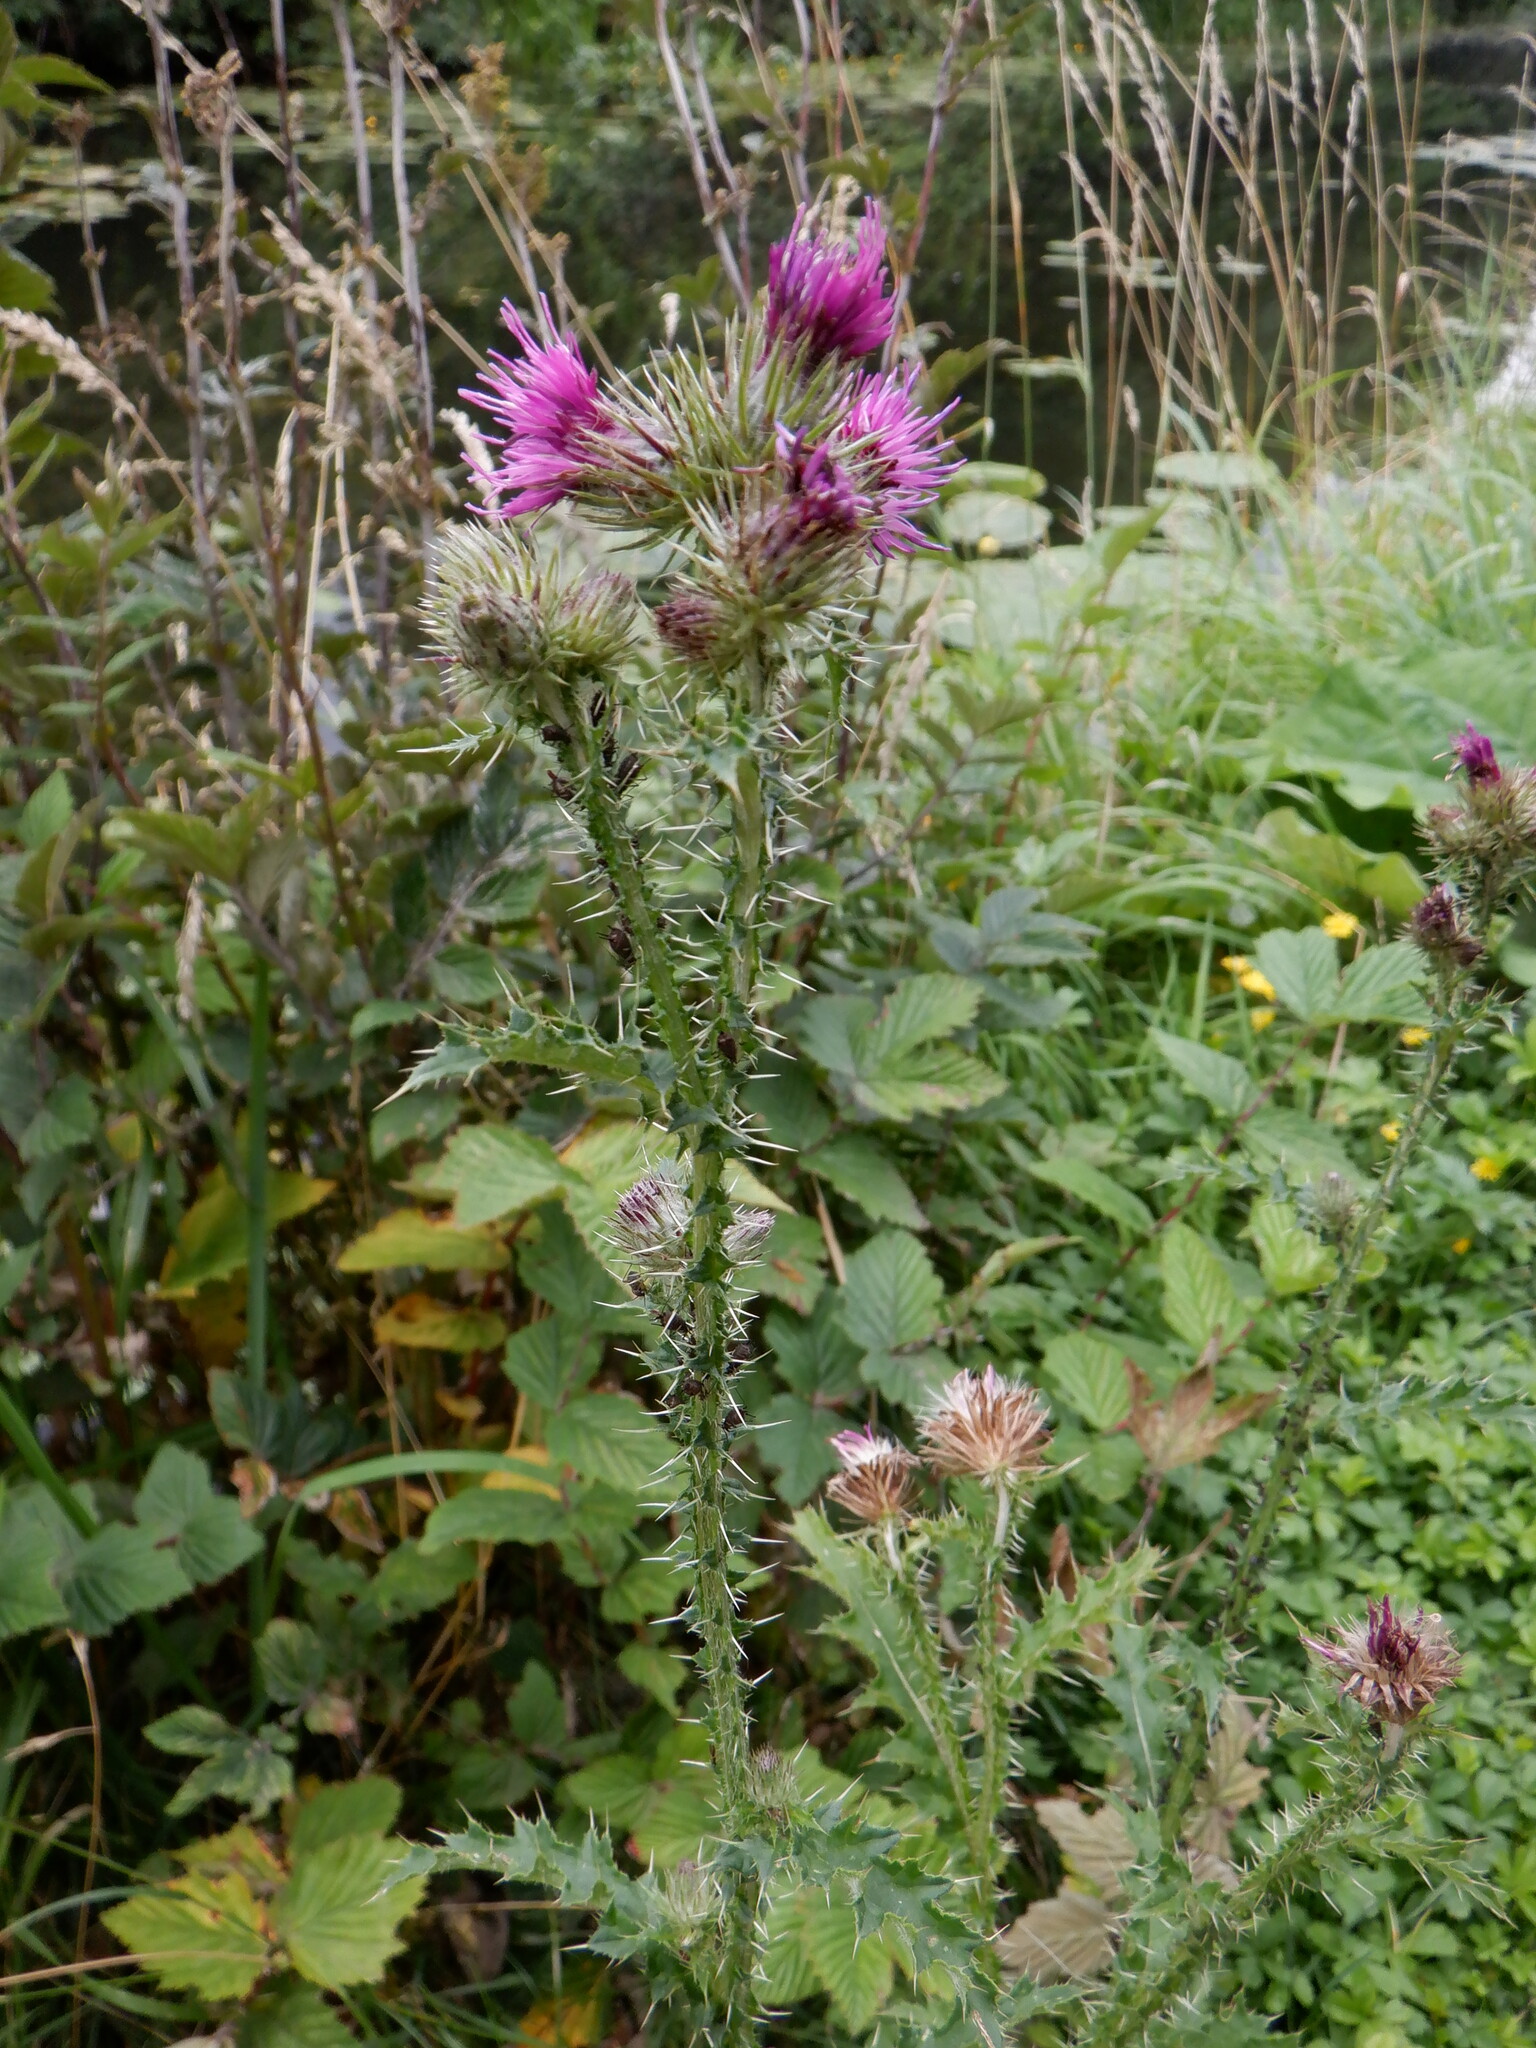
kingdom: Plantae
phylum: Tracheophyta
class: Magnoliopsida
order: Asterales
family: Asteraceae
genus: Carduus
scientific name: Carduus crispus
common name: Welted thistle
